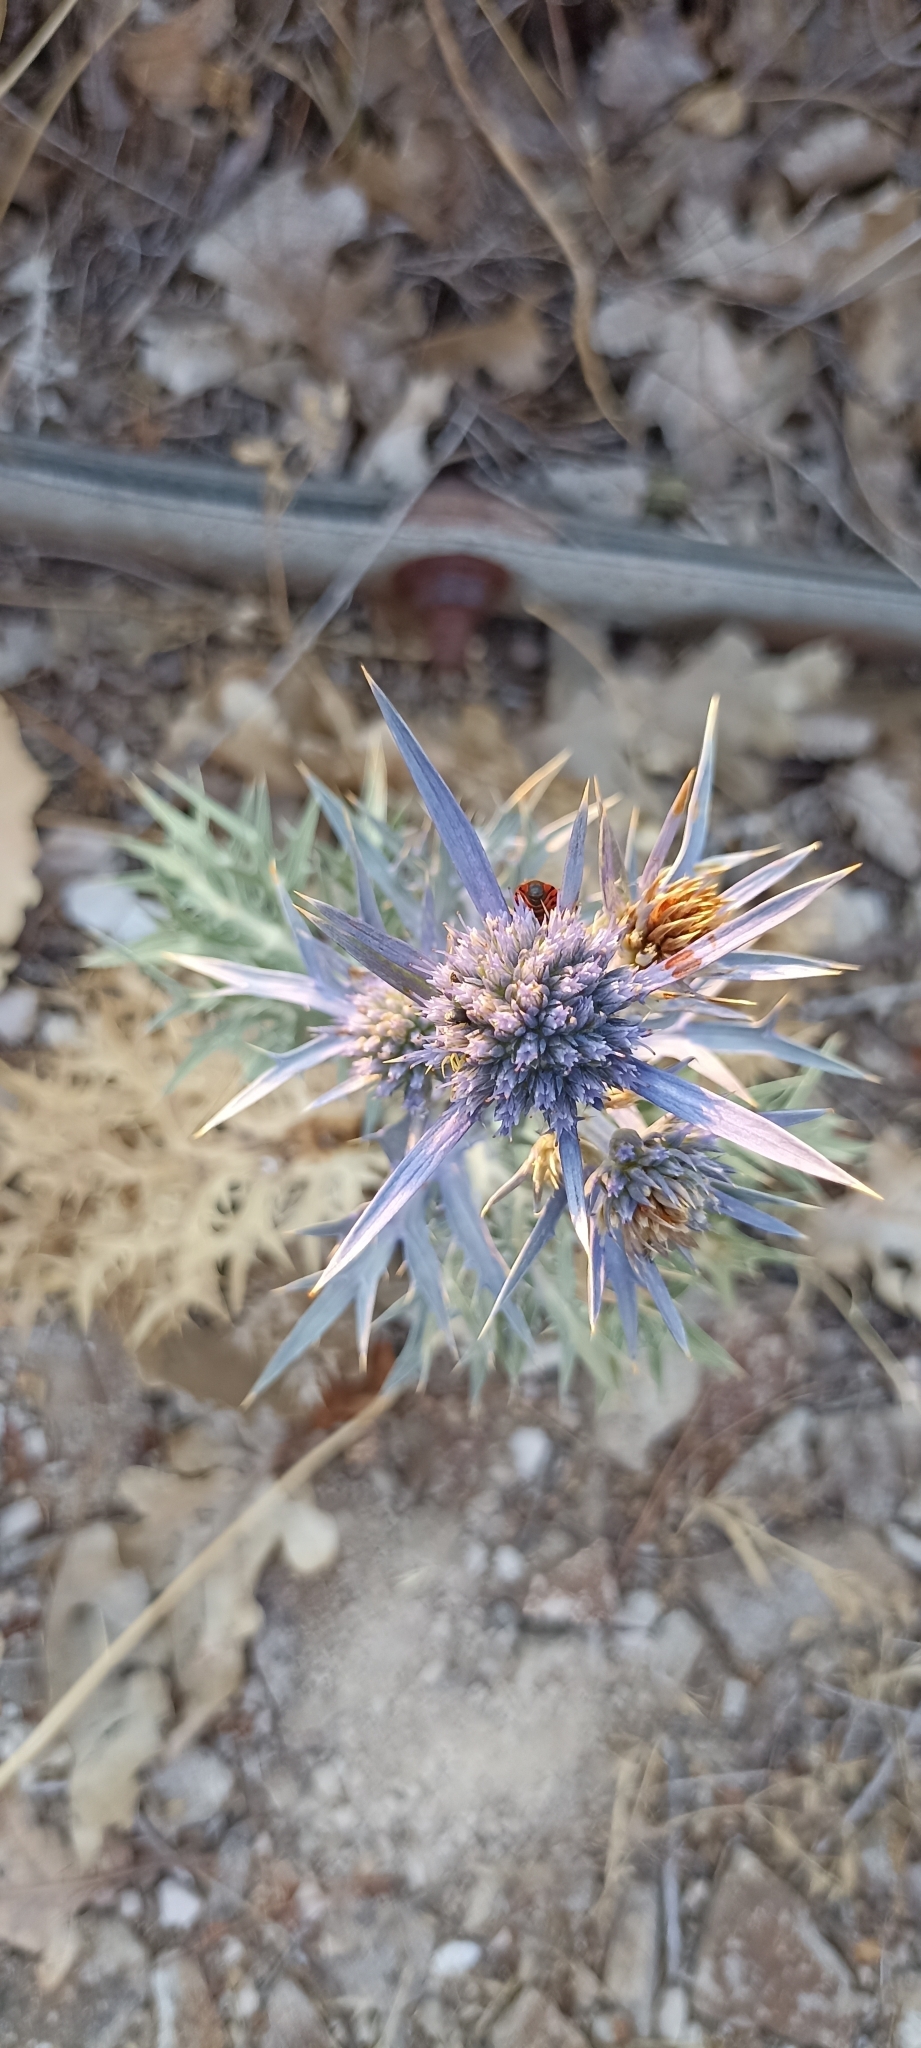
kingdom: Plantae
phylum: Tracheophyta
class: Magnoliopsida
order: Apiales
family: Apiaceae
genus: Eryngium
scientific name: Eryngium amethystinum
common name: Amethyst eryngo
